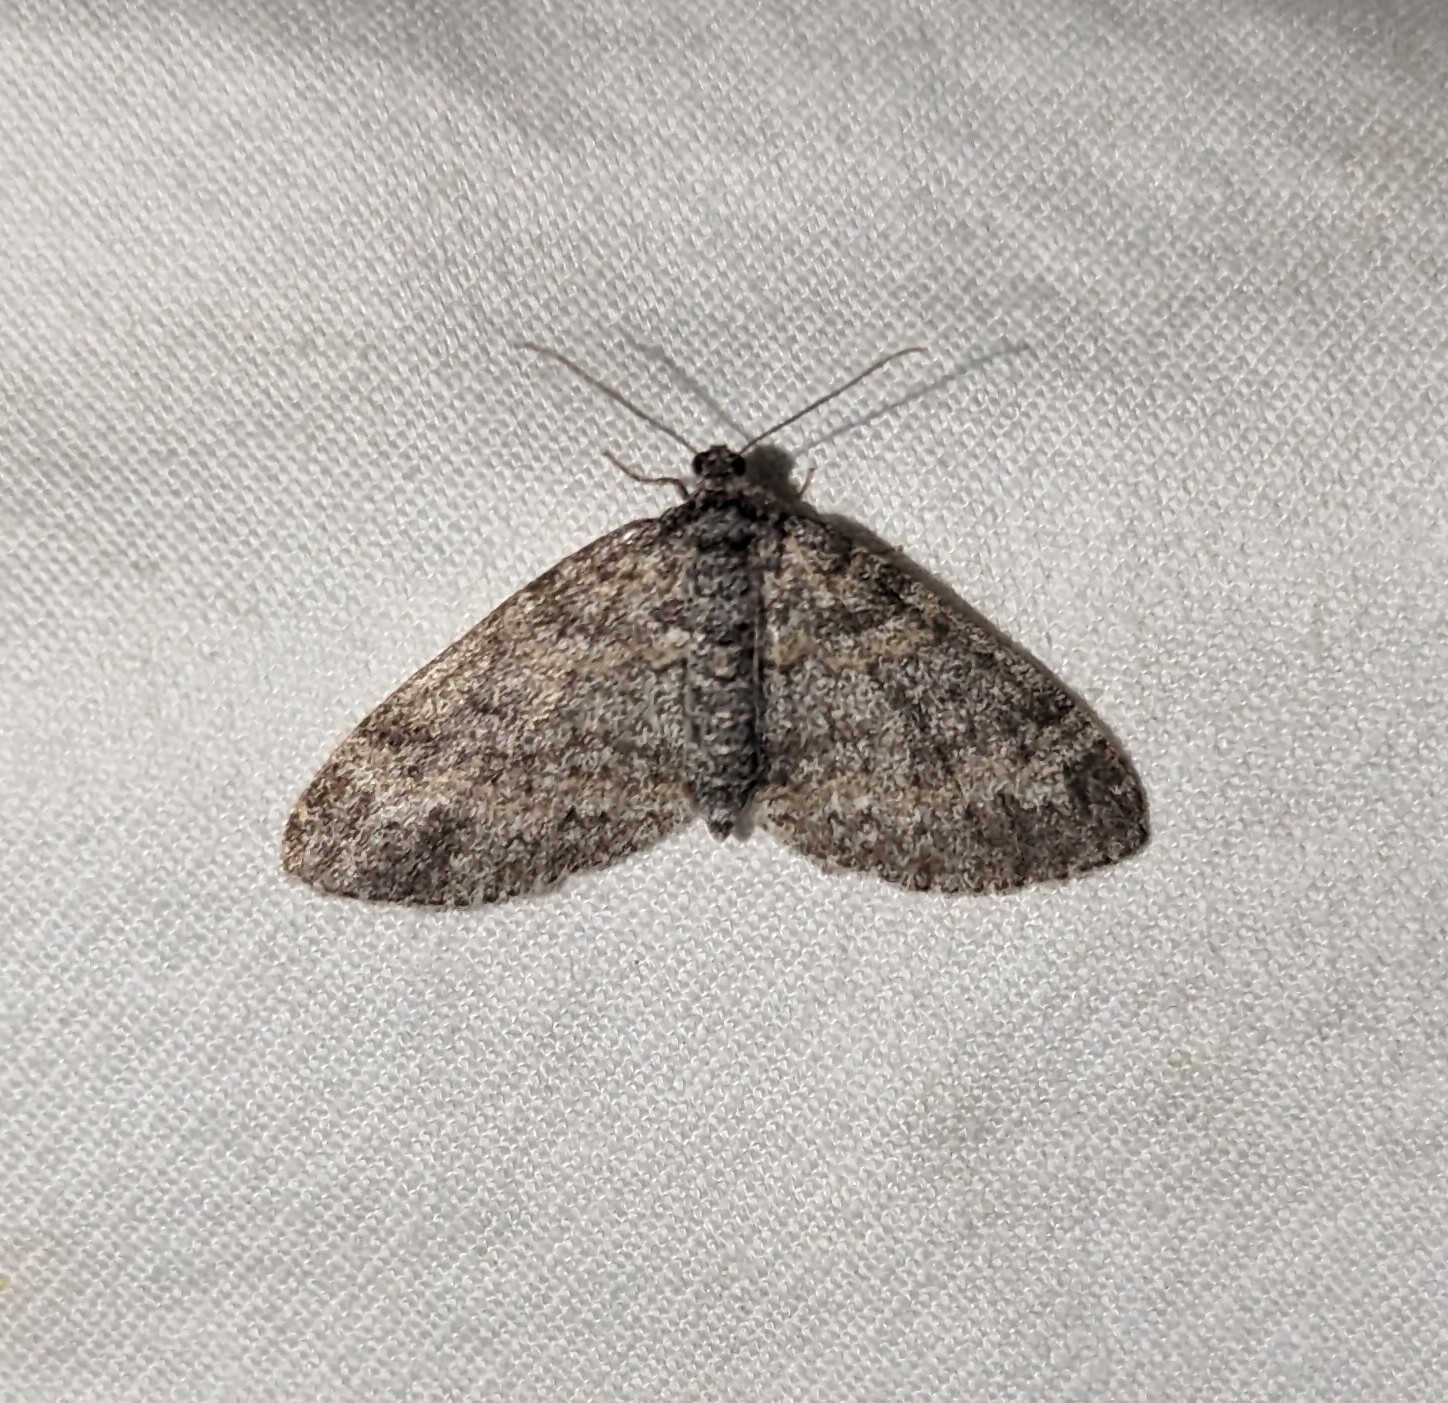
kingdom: Animalia
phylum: Arthropoda
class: Insecta
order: Lepidoptera
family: Geometridae
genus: Lobophora
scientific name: Lobophora nivigerata
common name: Powdered bigwing
